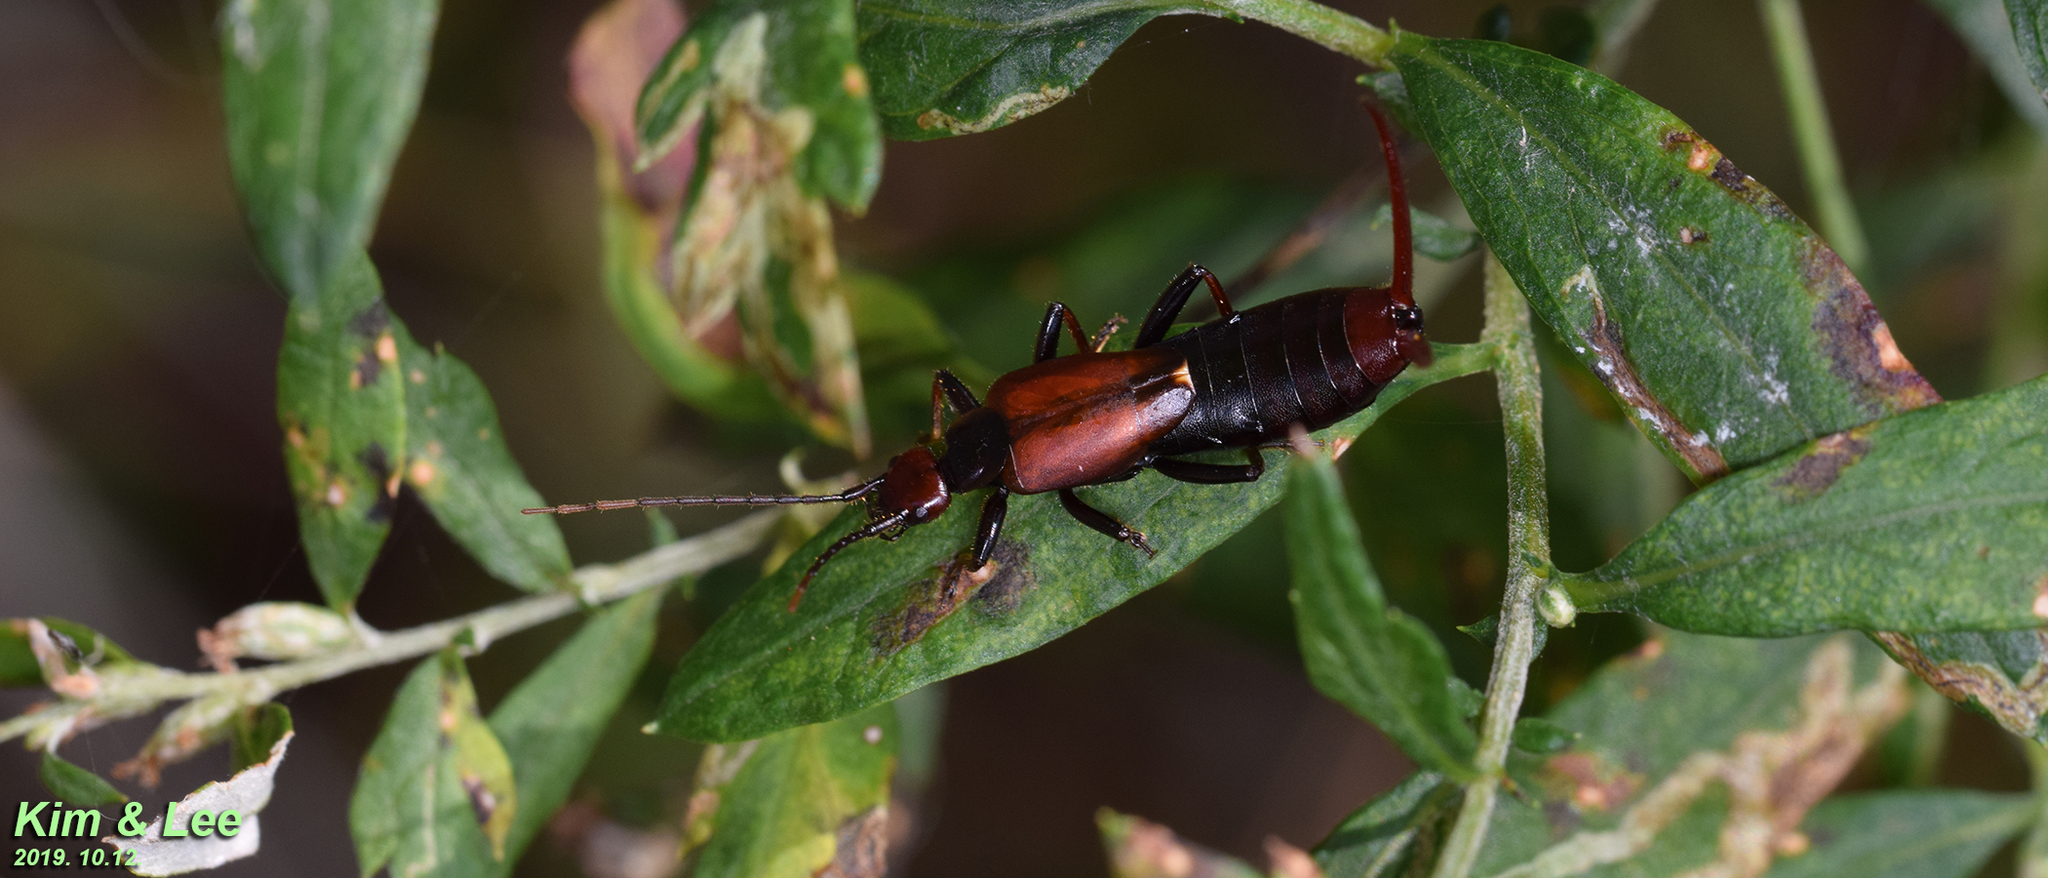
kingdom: Animalia
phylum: Arthropoda
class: Insecta
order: Dermaptera
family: Forficulidae
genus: Timomenus
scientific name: Timomenus komarovi
